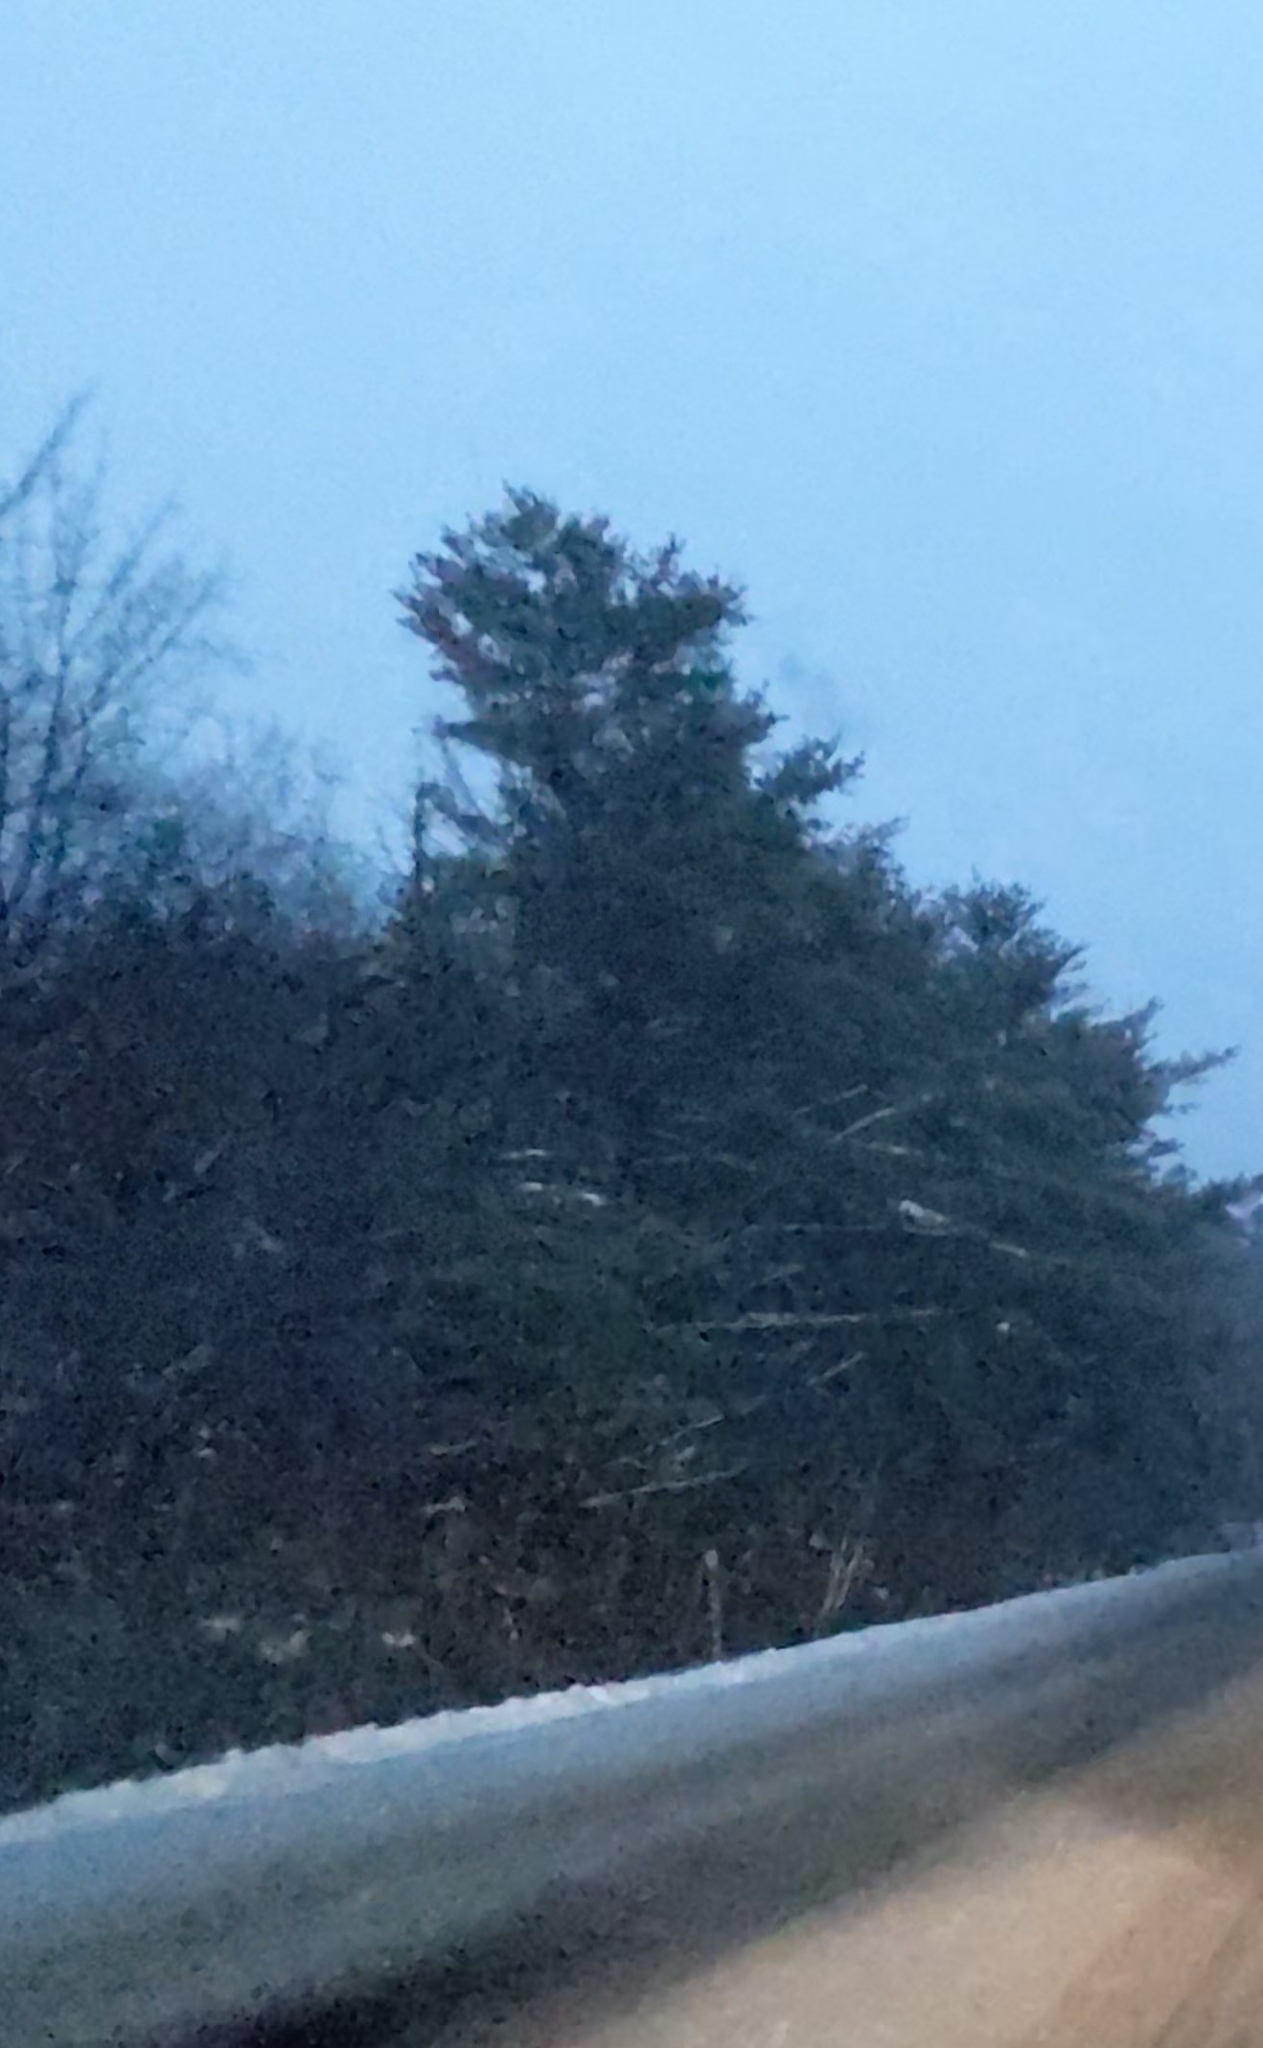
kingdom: Plantae
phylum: Tracheophyta
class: Pinopsida
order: Pinales
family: Pinaceae
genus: Pinus
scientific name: Pinus strobus
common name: Weymouth pine
